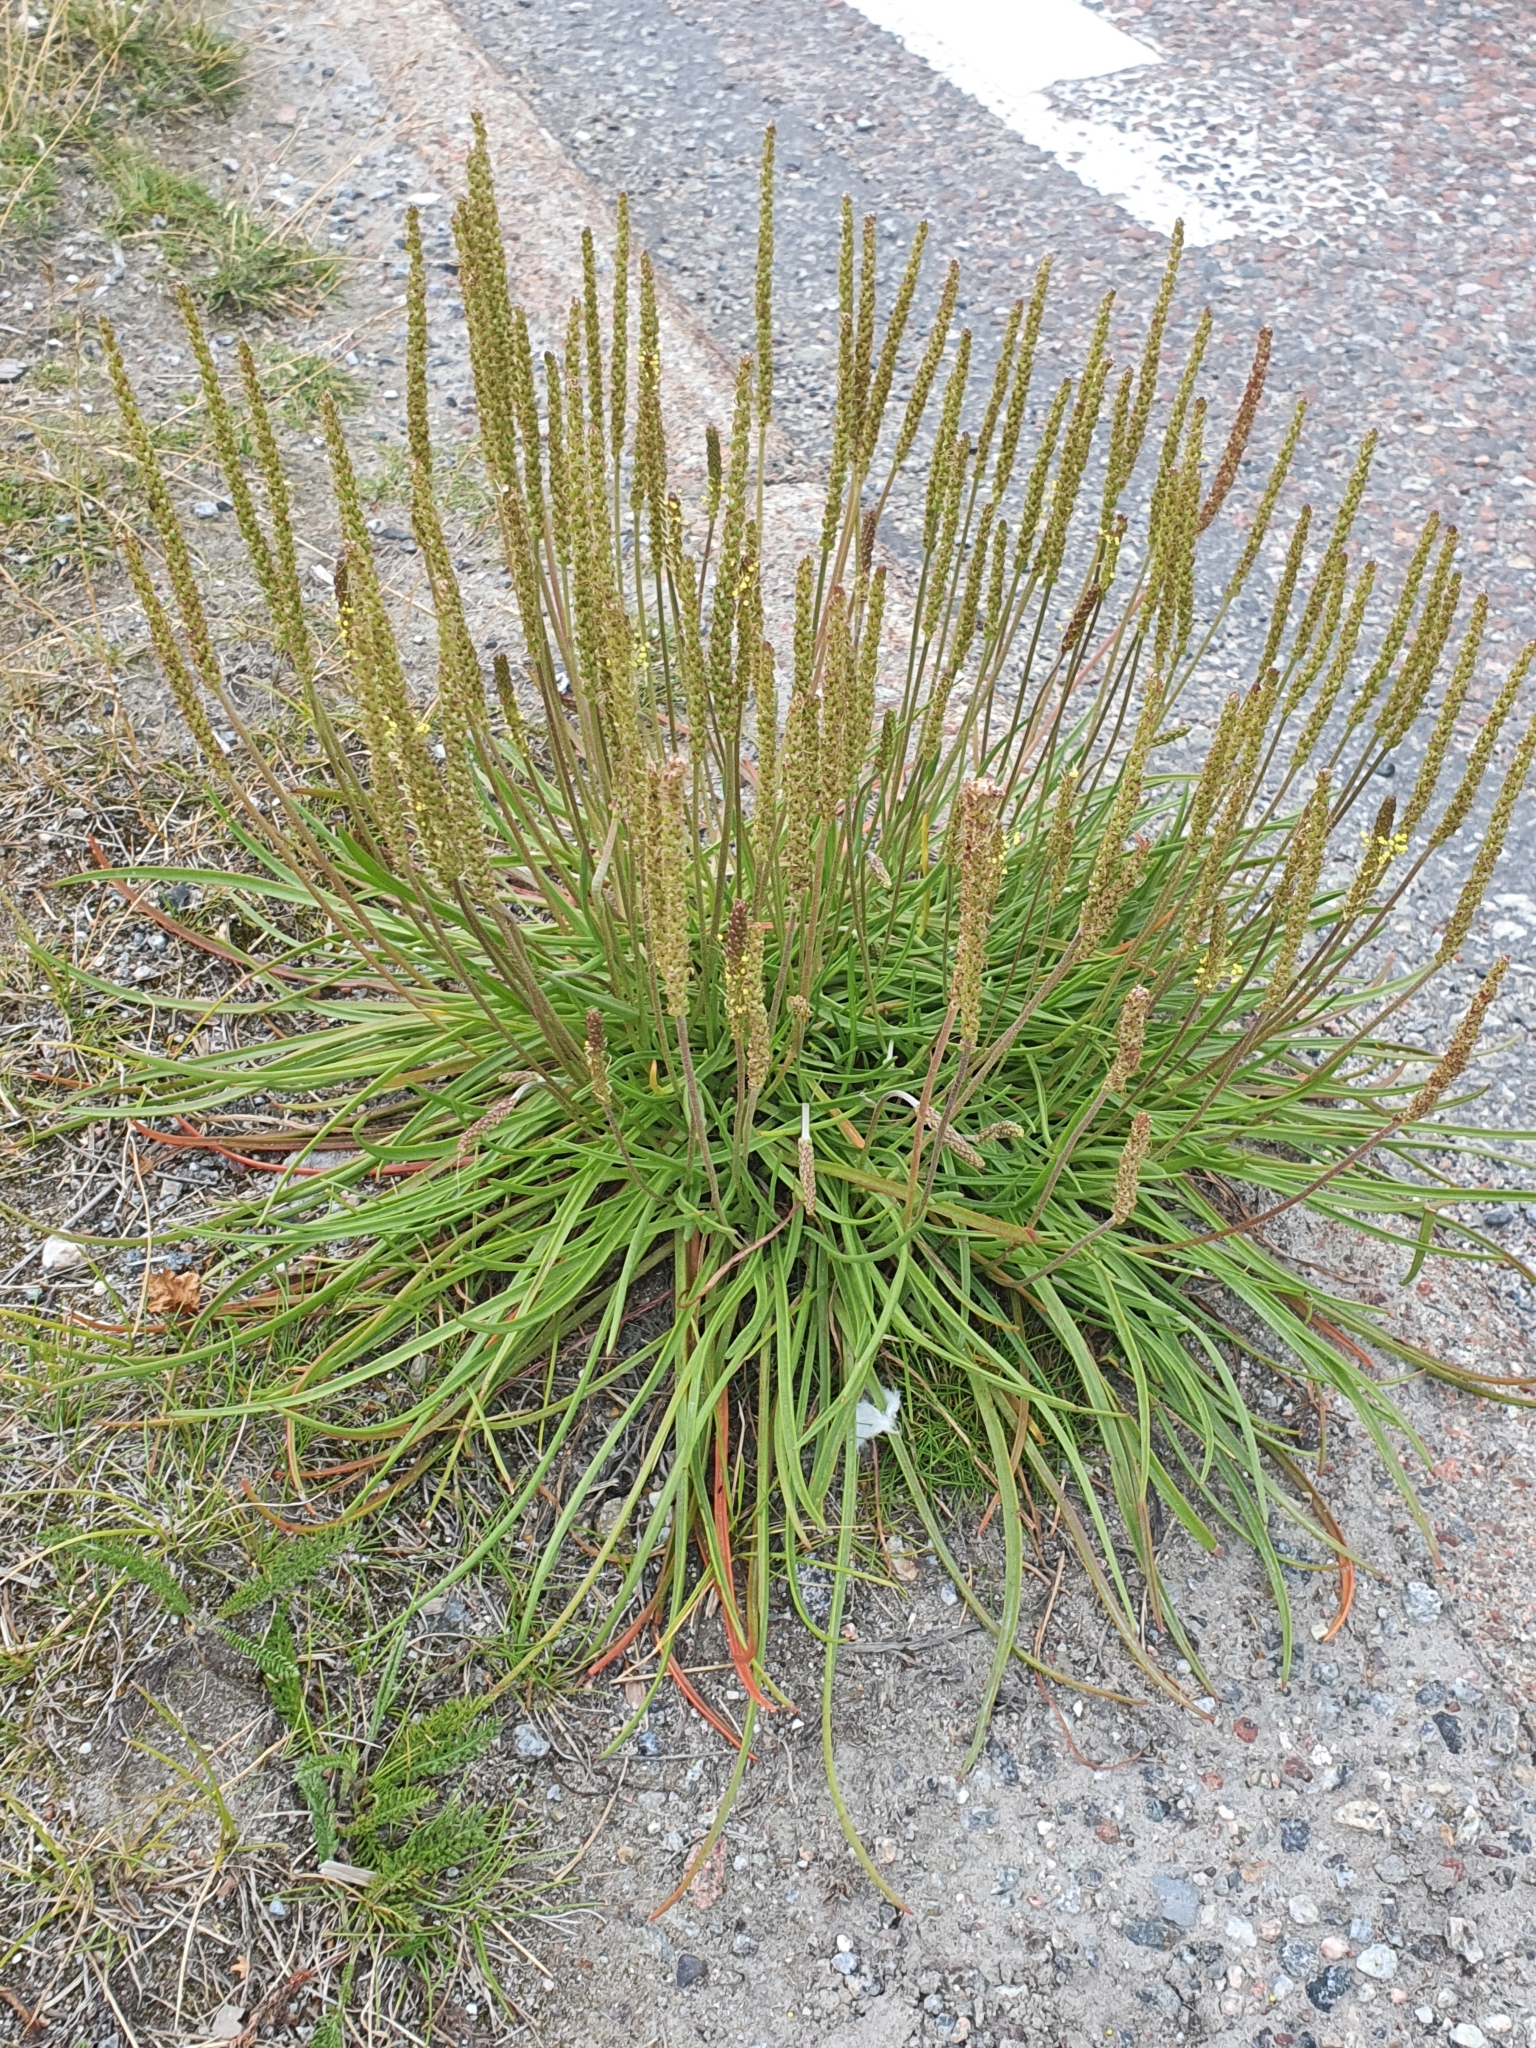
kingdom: Plantae
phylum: Tracheophyta
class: Magnoliopsida
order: Lamiales
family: Plantaginaceae
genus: Plantago
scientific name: Plantago maritima
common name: Sea plantain
